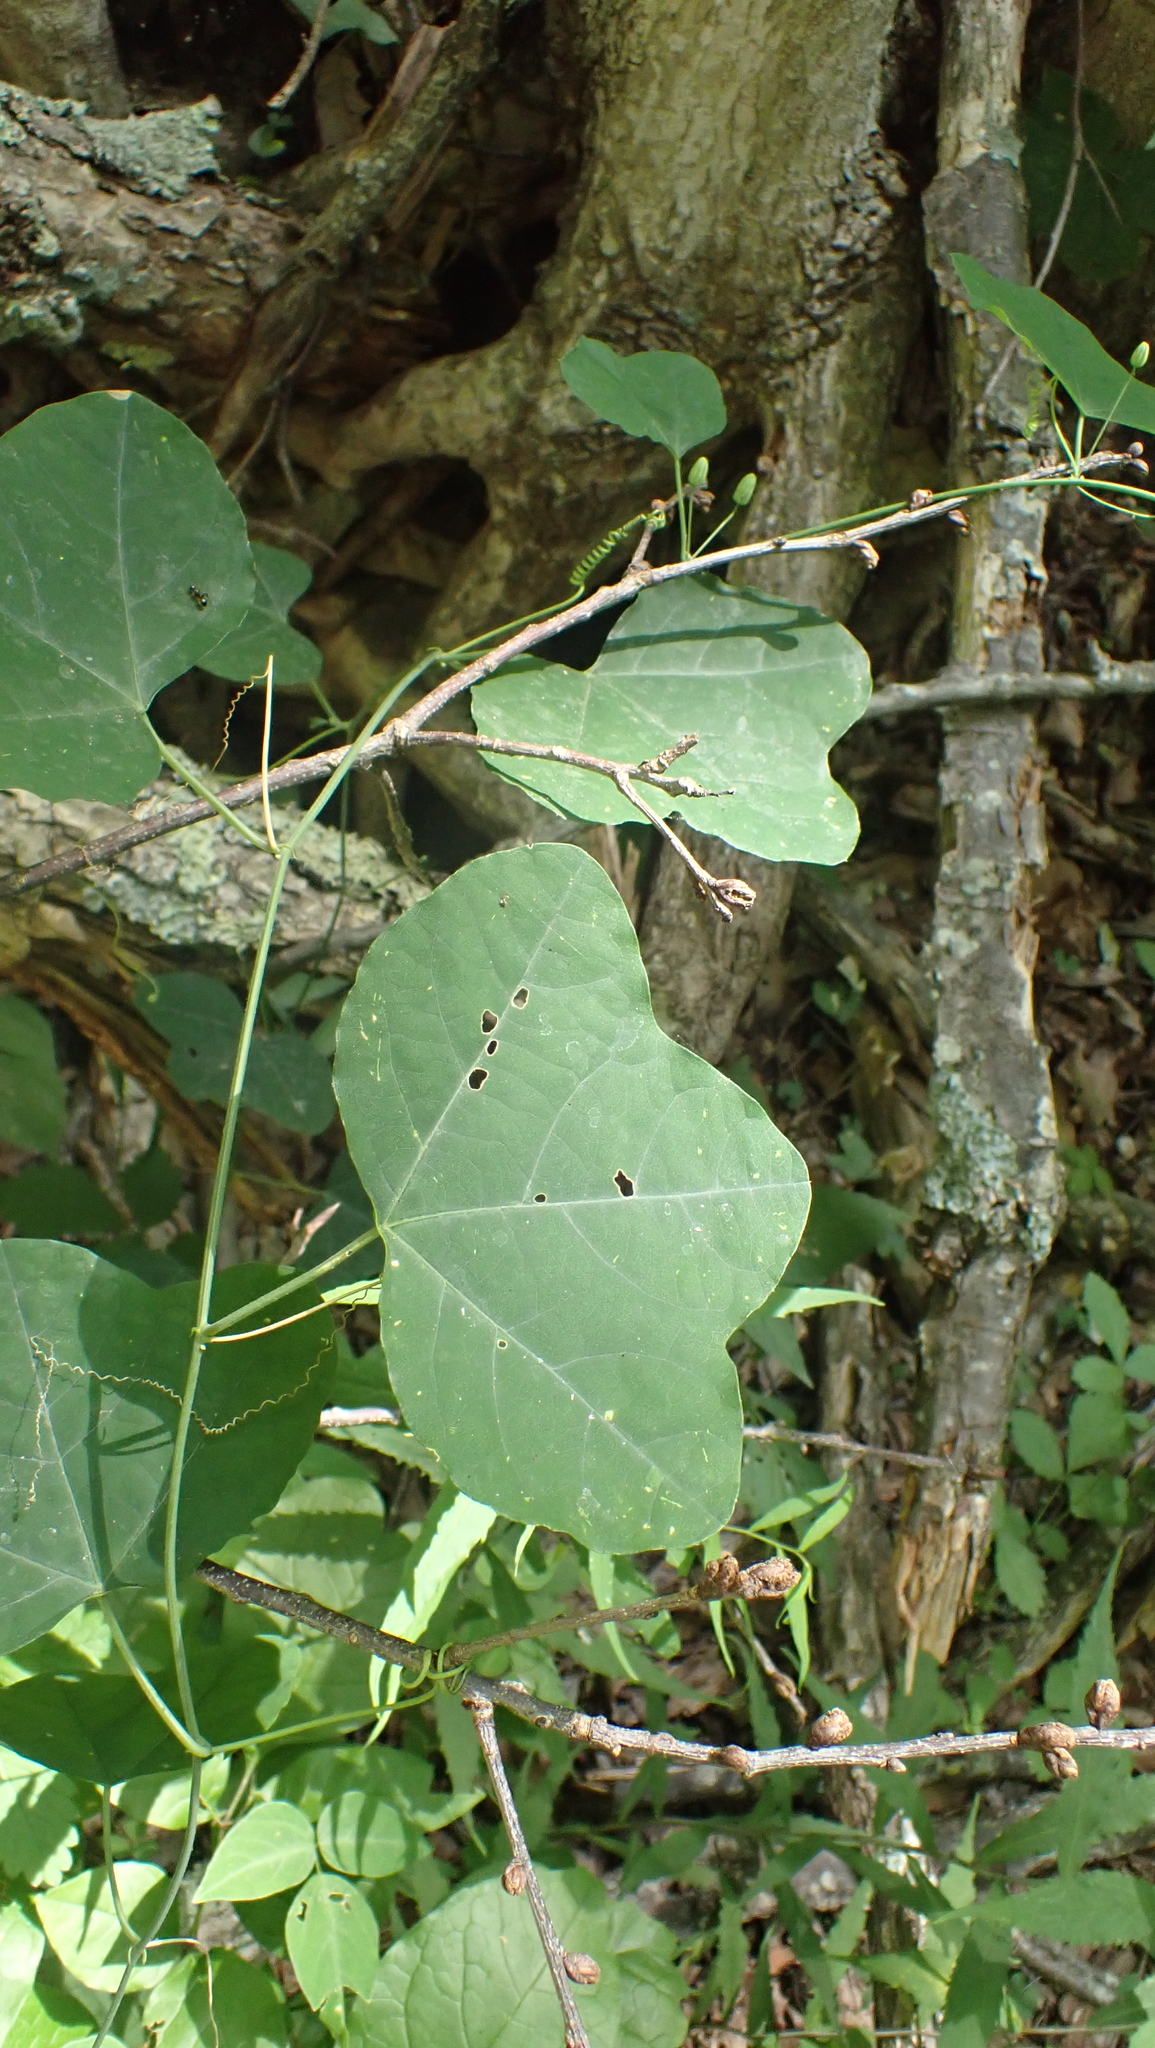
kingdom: Plantae
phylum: Tracheophyta
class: Magnoliopsida
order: Malpighiales
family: Passifloraceae
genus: Passiflora
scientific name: Passiflora lutea
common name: Yellow passionflower
